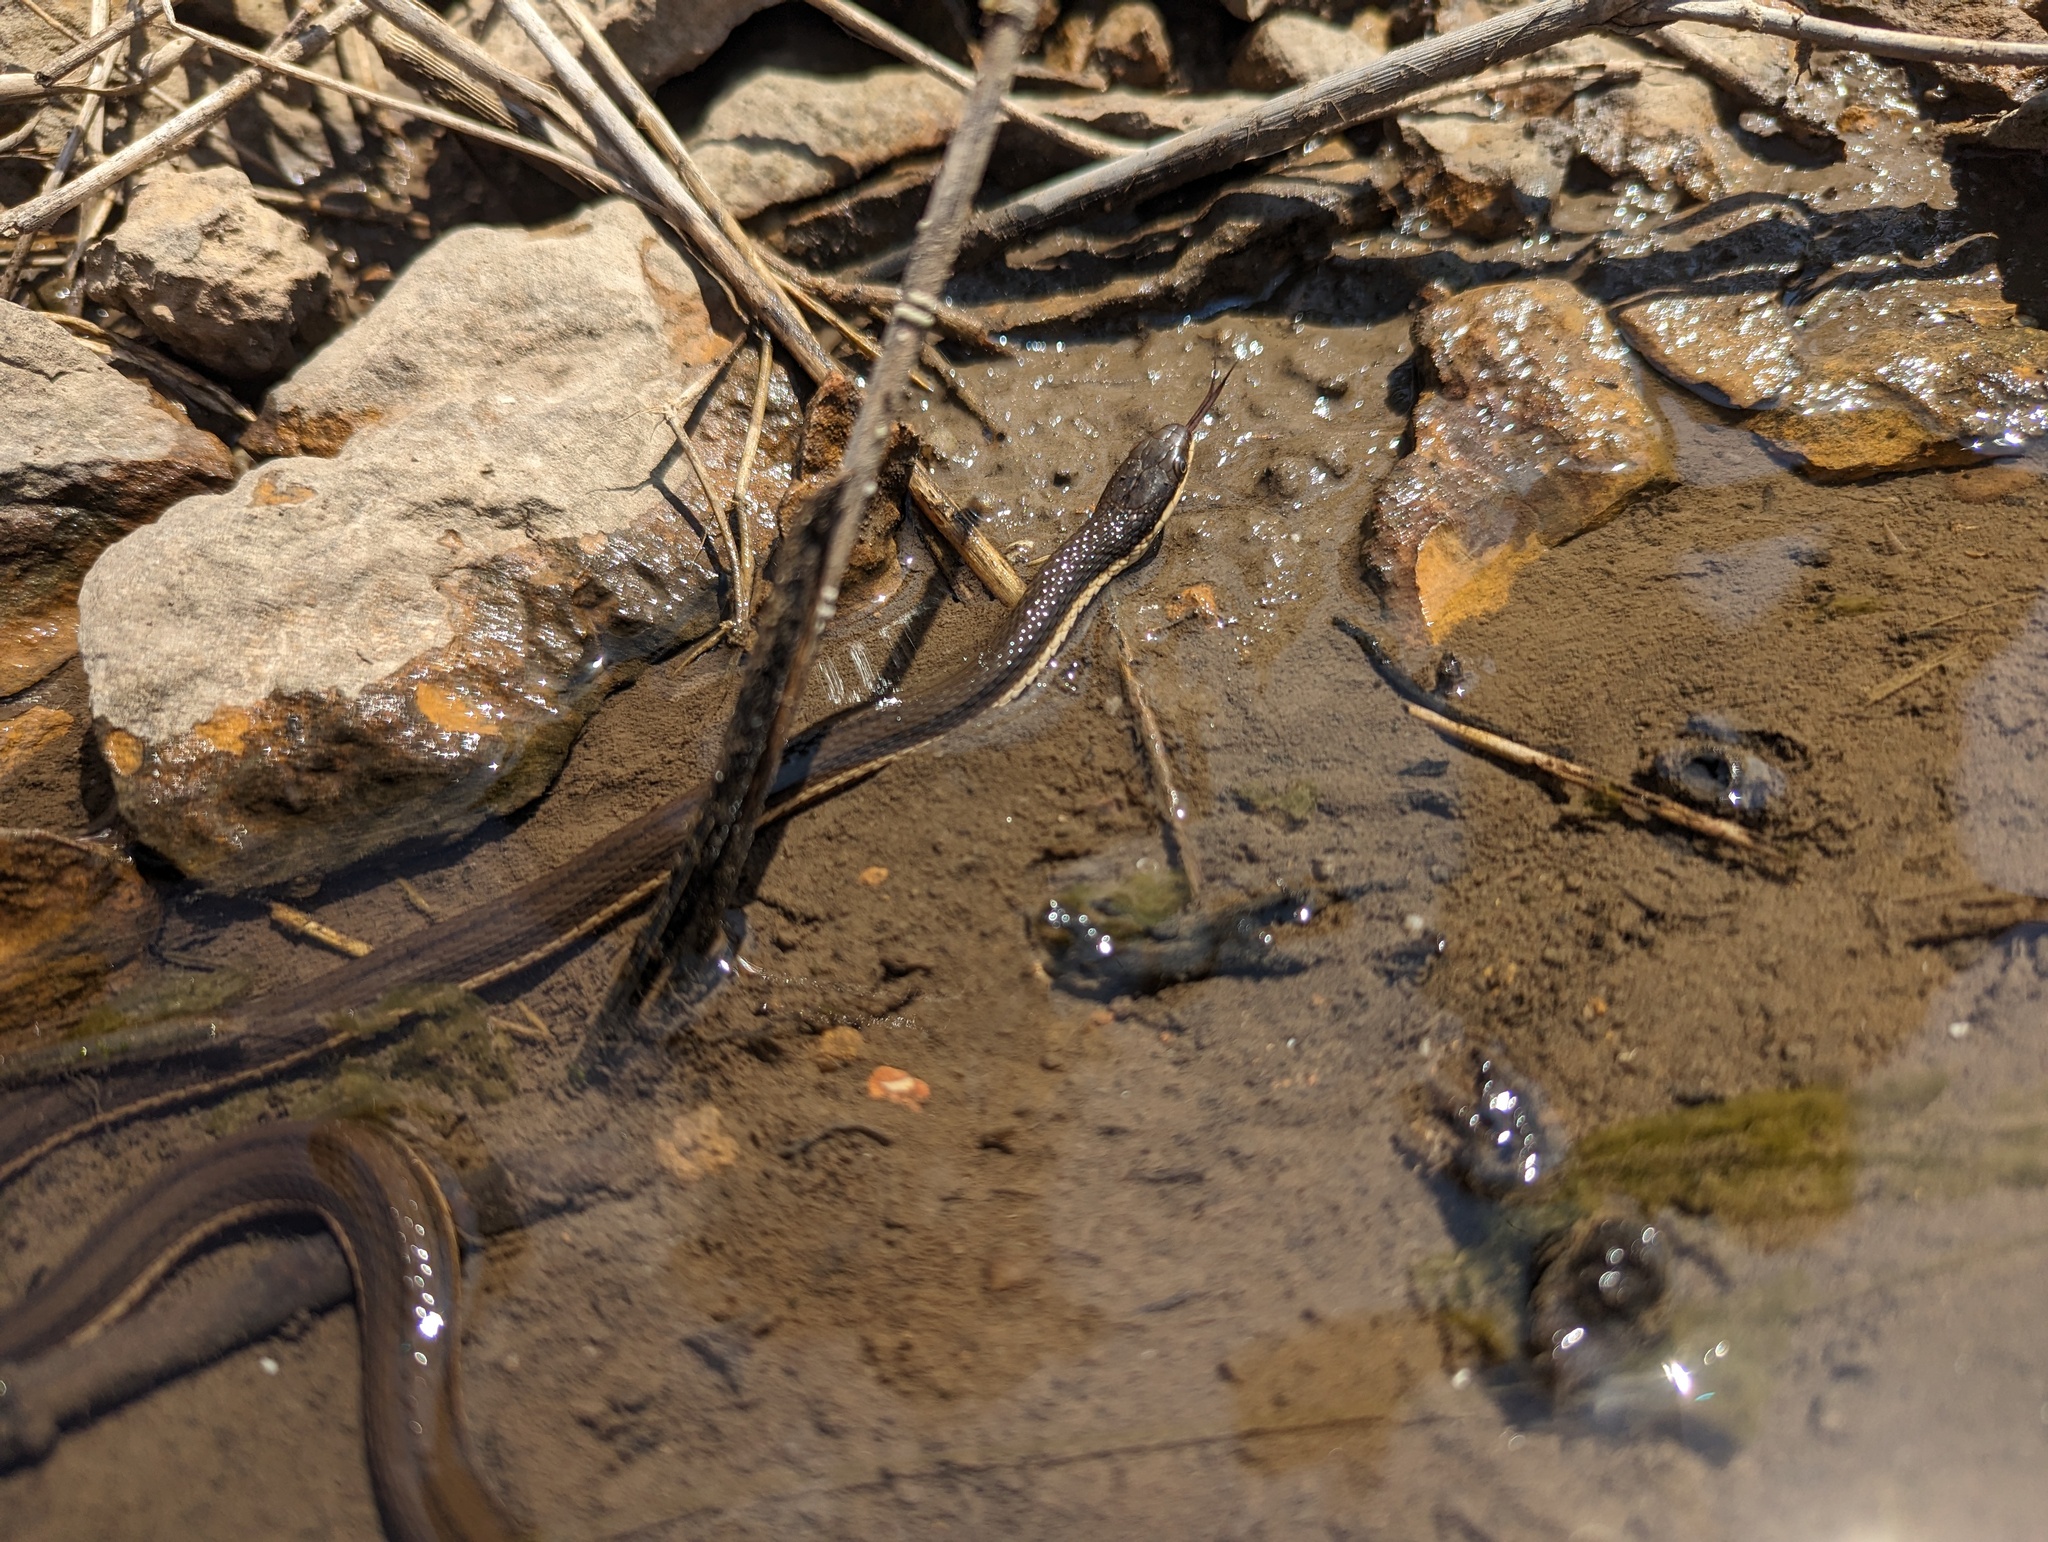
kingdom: Animalia
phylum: Chordata
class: Squamata
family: Colubridae
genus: Regina
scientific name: Regina septemvittata
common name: Queen snake
